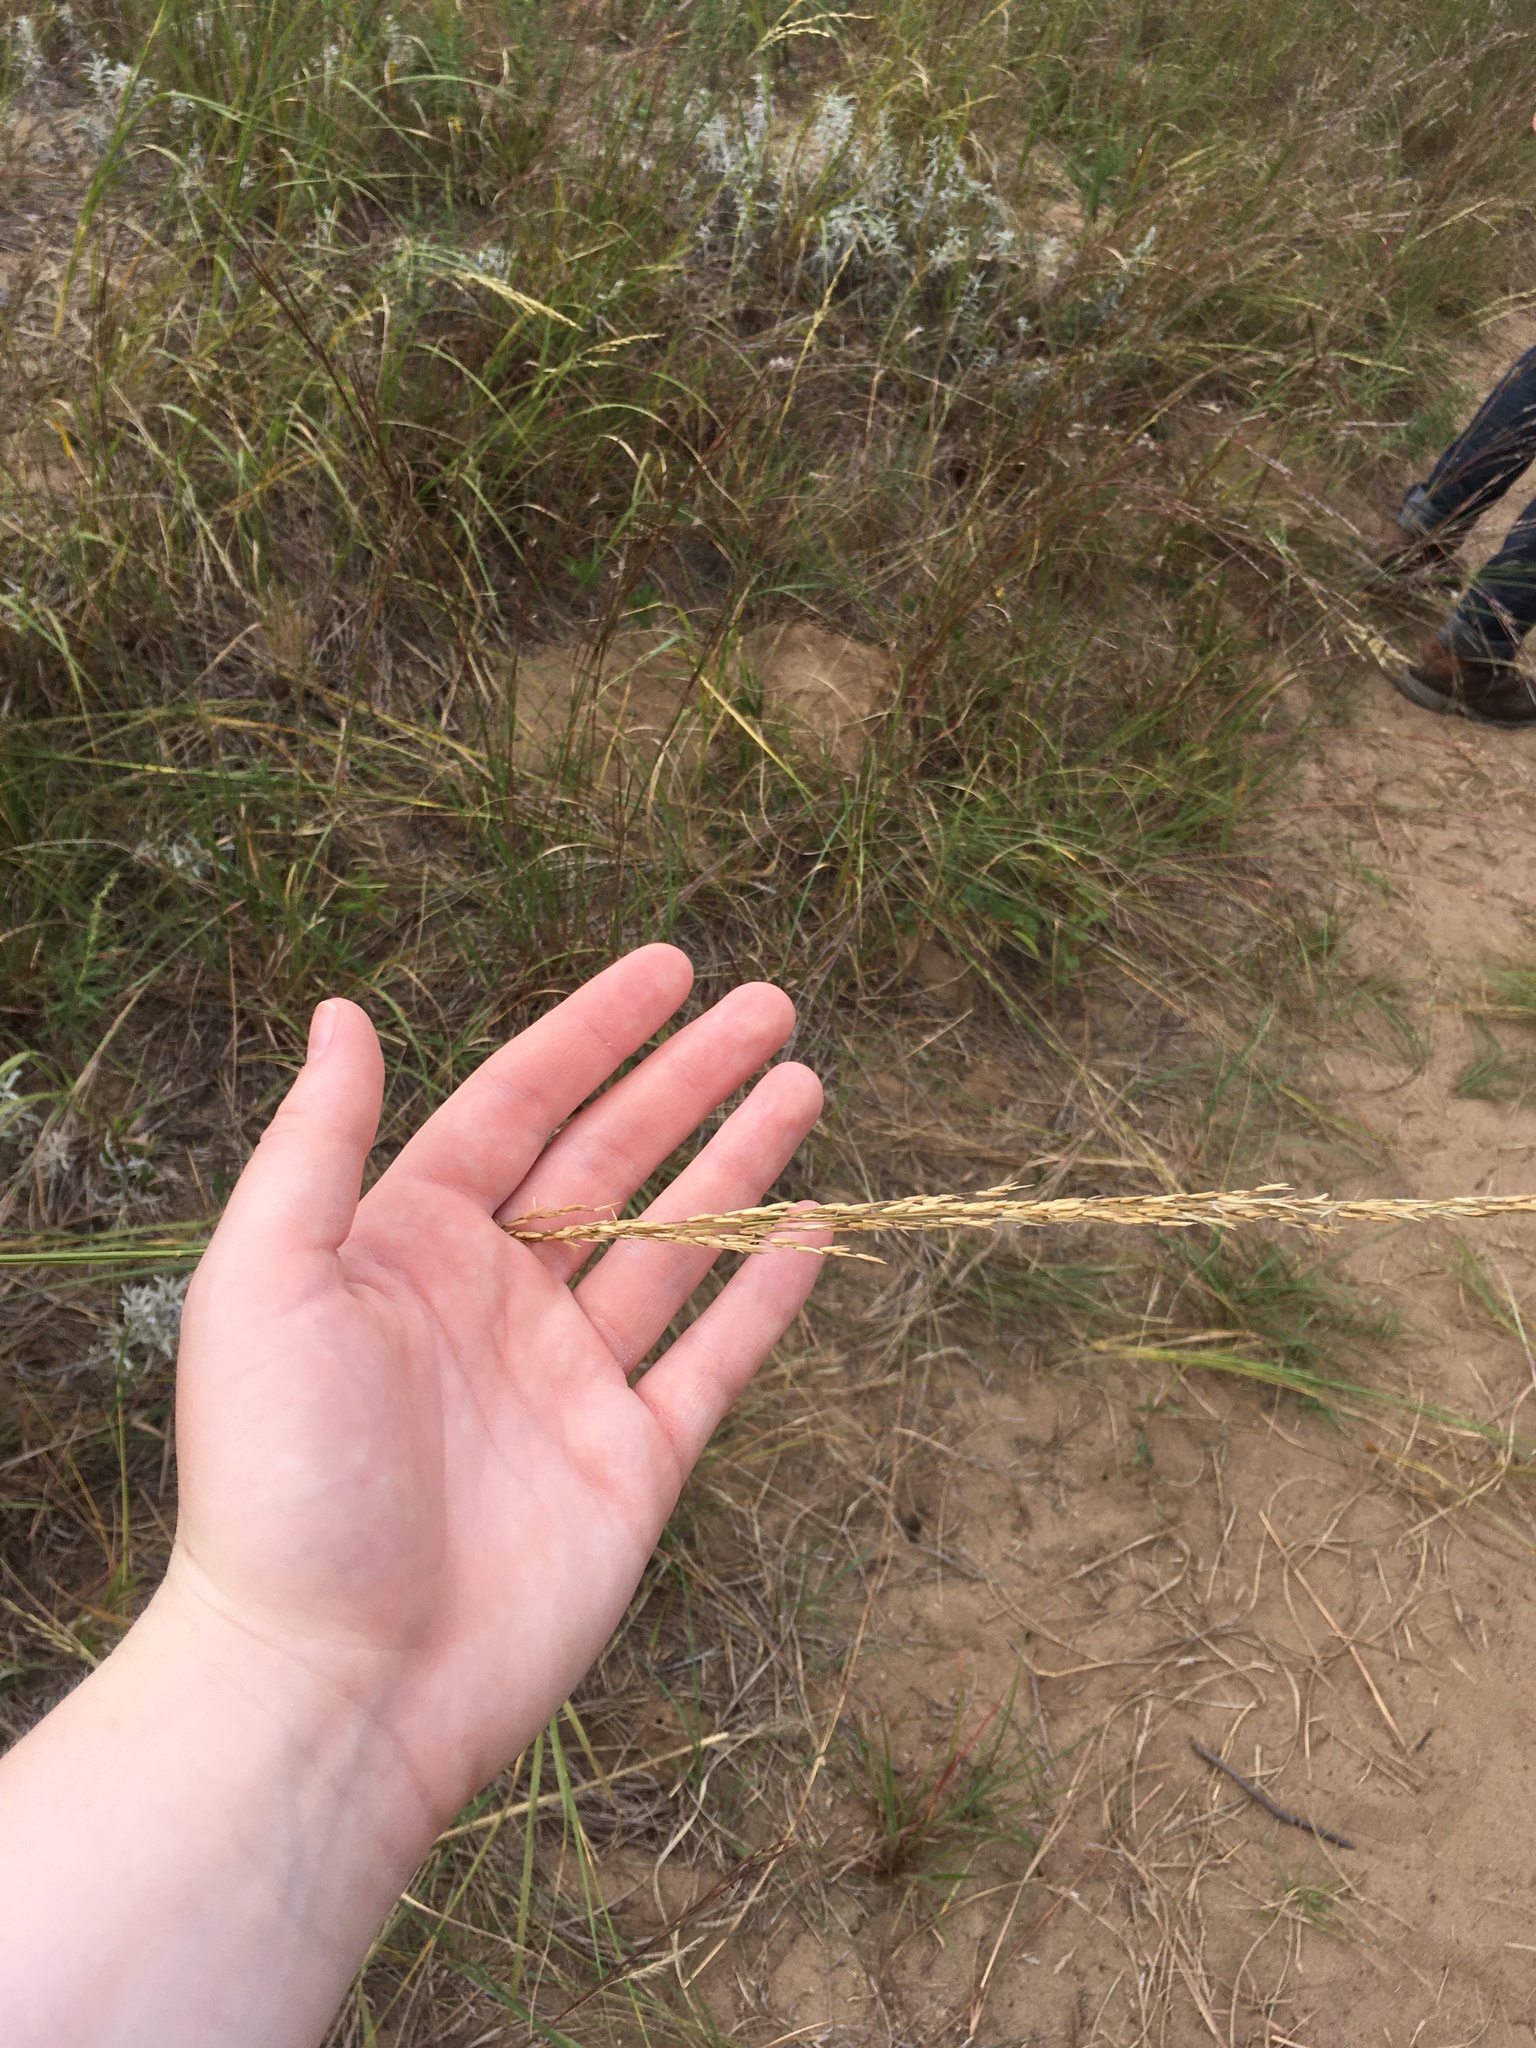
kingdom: Plantae
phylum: Tracheophyta
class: Liliopsida
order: Poales
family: Poaceae
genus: Sporobolus
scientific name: Sporobolus rigidus
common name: Prairie sandreed
